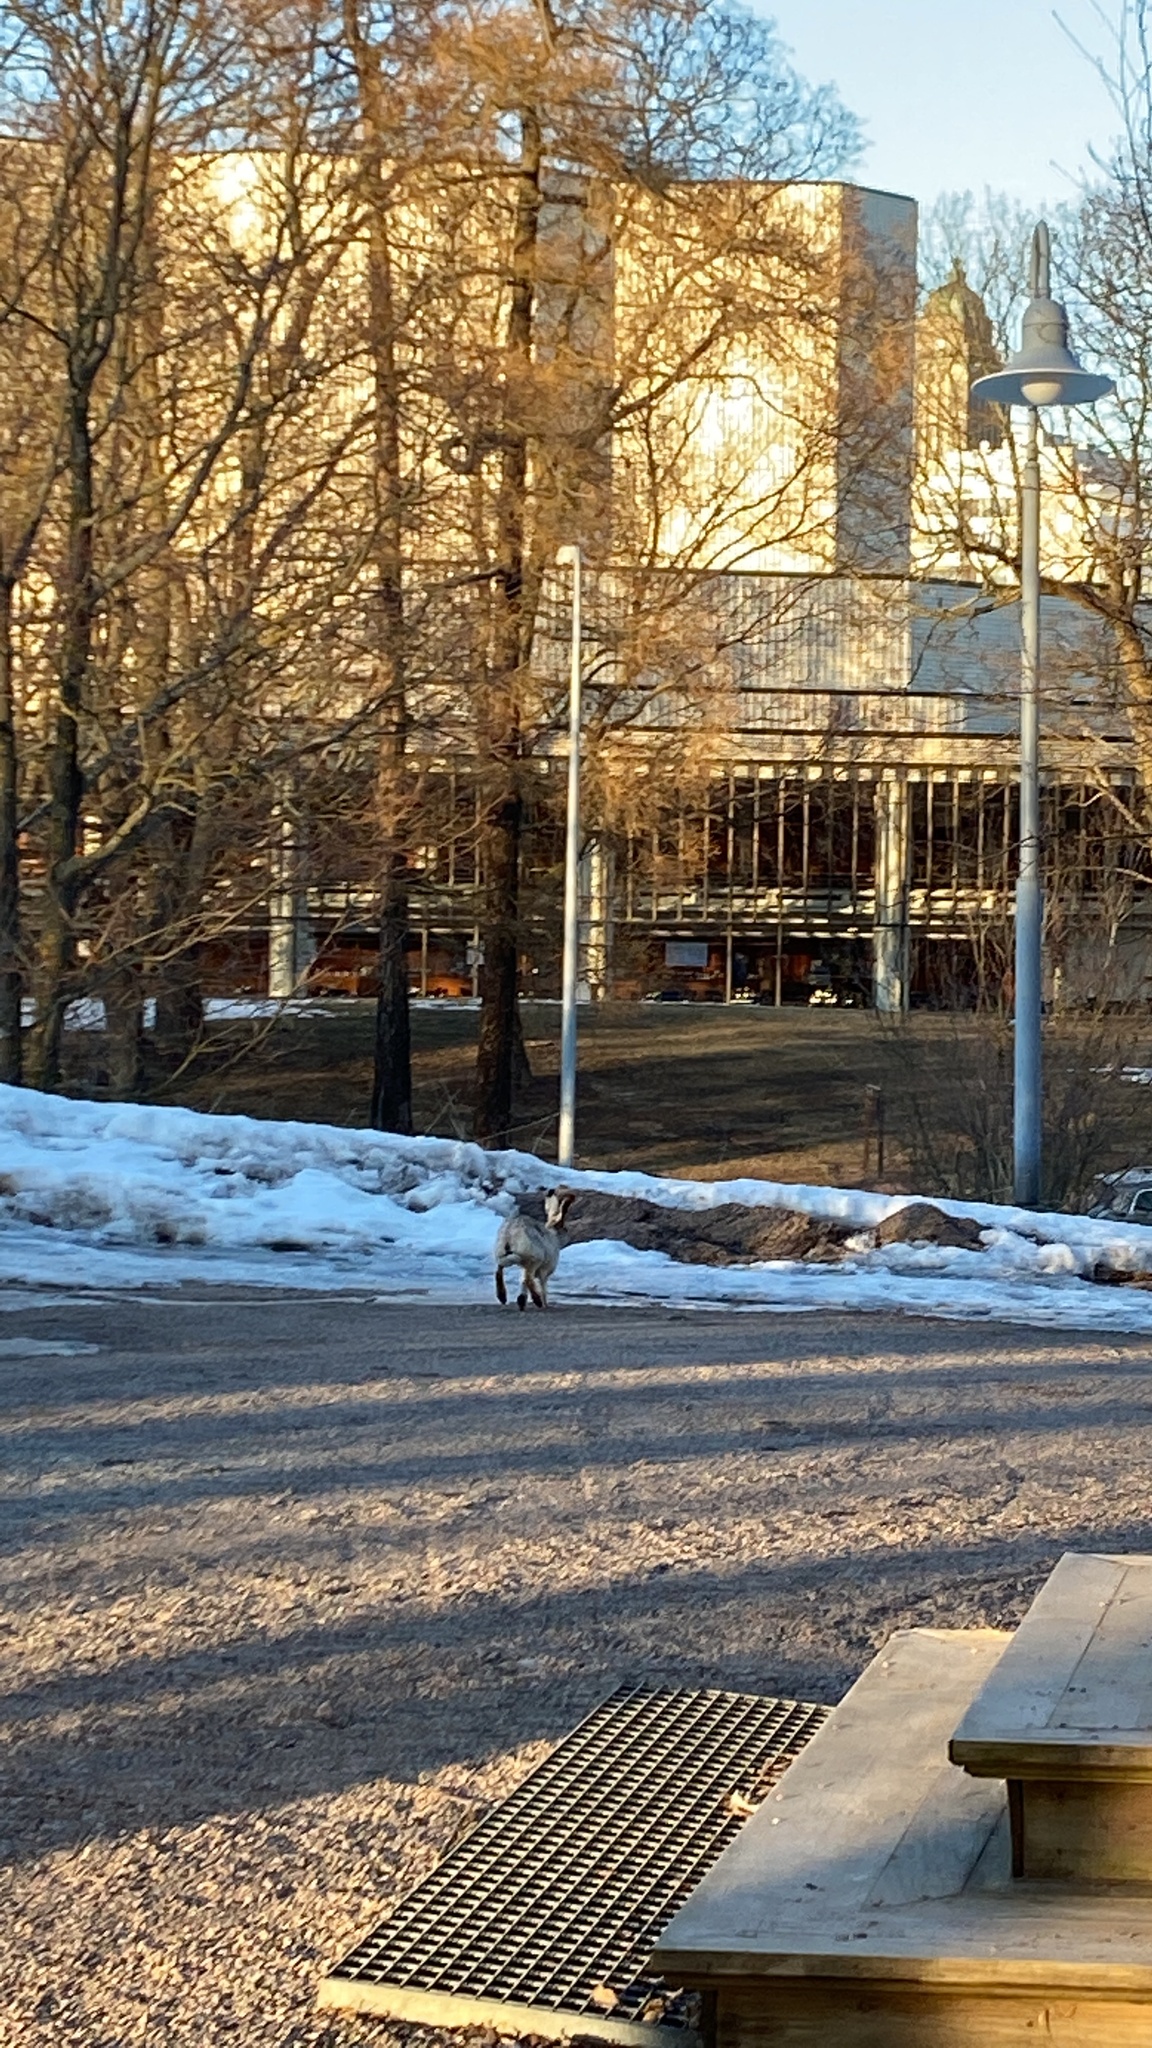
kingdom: Animalia
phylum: Chordata
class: Mammalia
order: Lagomorpha
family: Leporidae
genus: Lepus
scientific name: Lepus europaeus
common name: European hare
